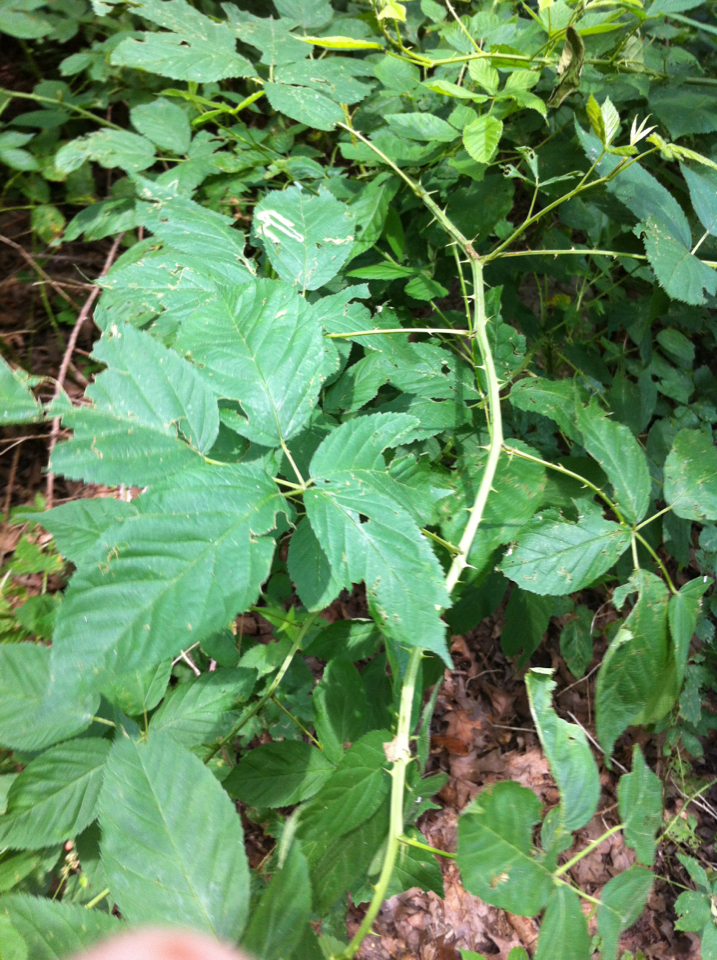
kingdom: Plantae
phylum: Tracheophyta
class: Magnoliopsida
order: Rosales
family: Rosaceae
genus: Rubus
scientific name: Rubus allegheniensis
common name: Allegheny blackberry
